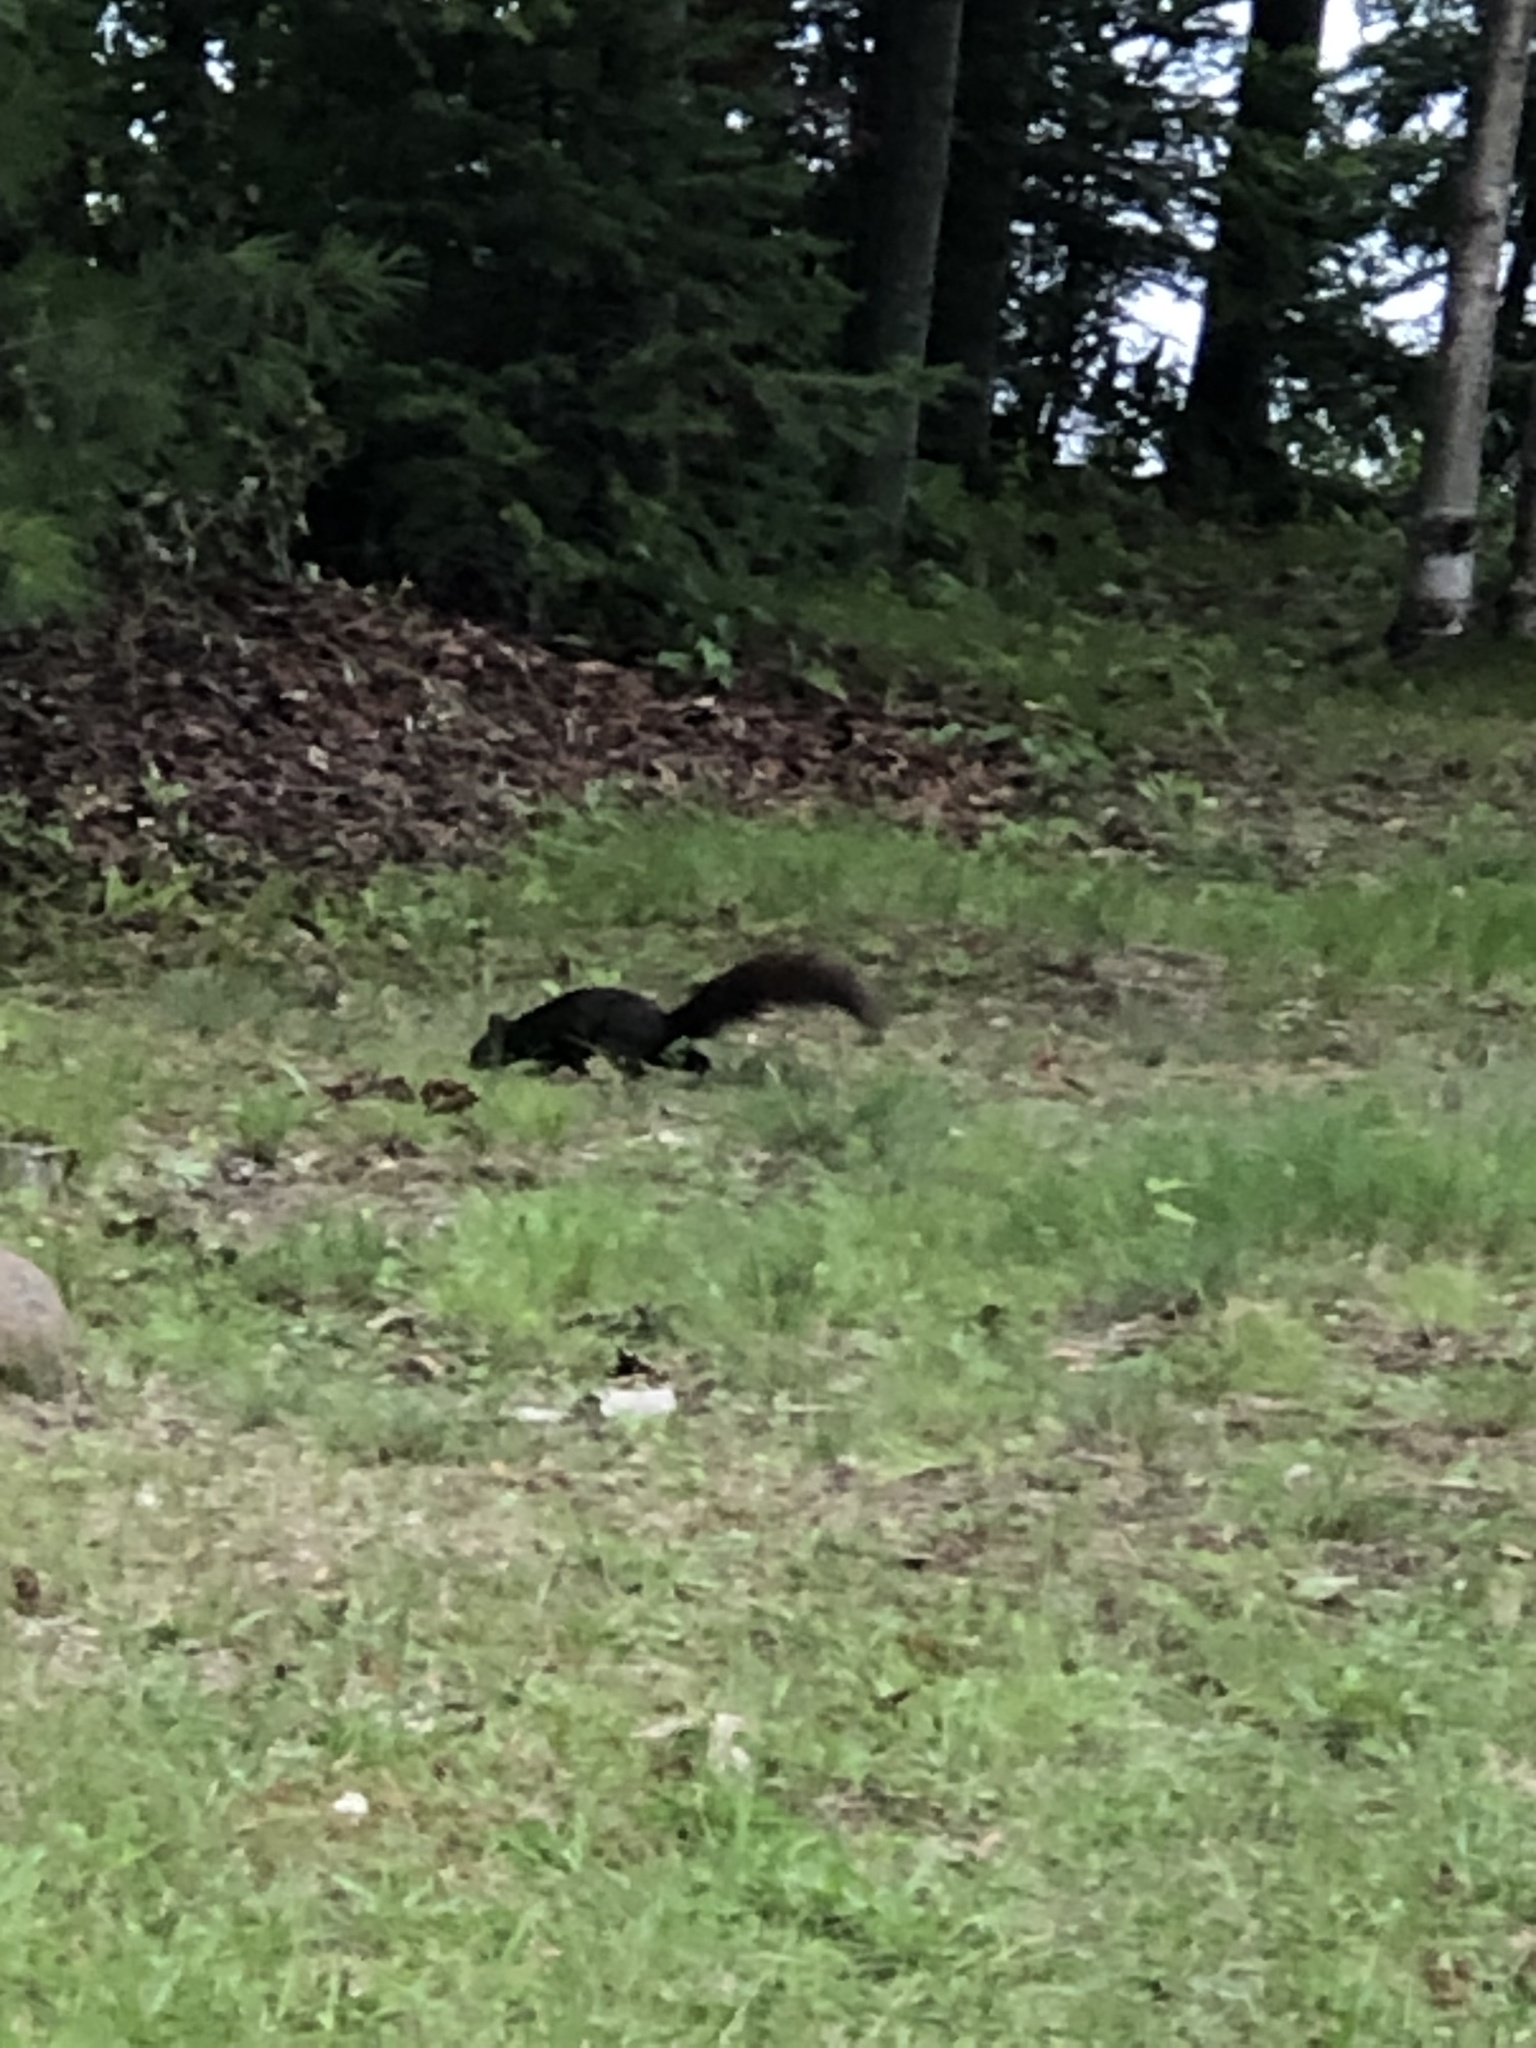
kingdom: Animalia
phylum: Chordata
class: Mammalia
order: Rodentia
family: Sciuridae
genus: Sciurus
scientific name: Sciurus carolinensis
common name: Eastern gray squirrel
